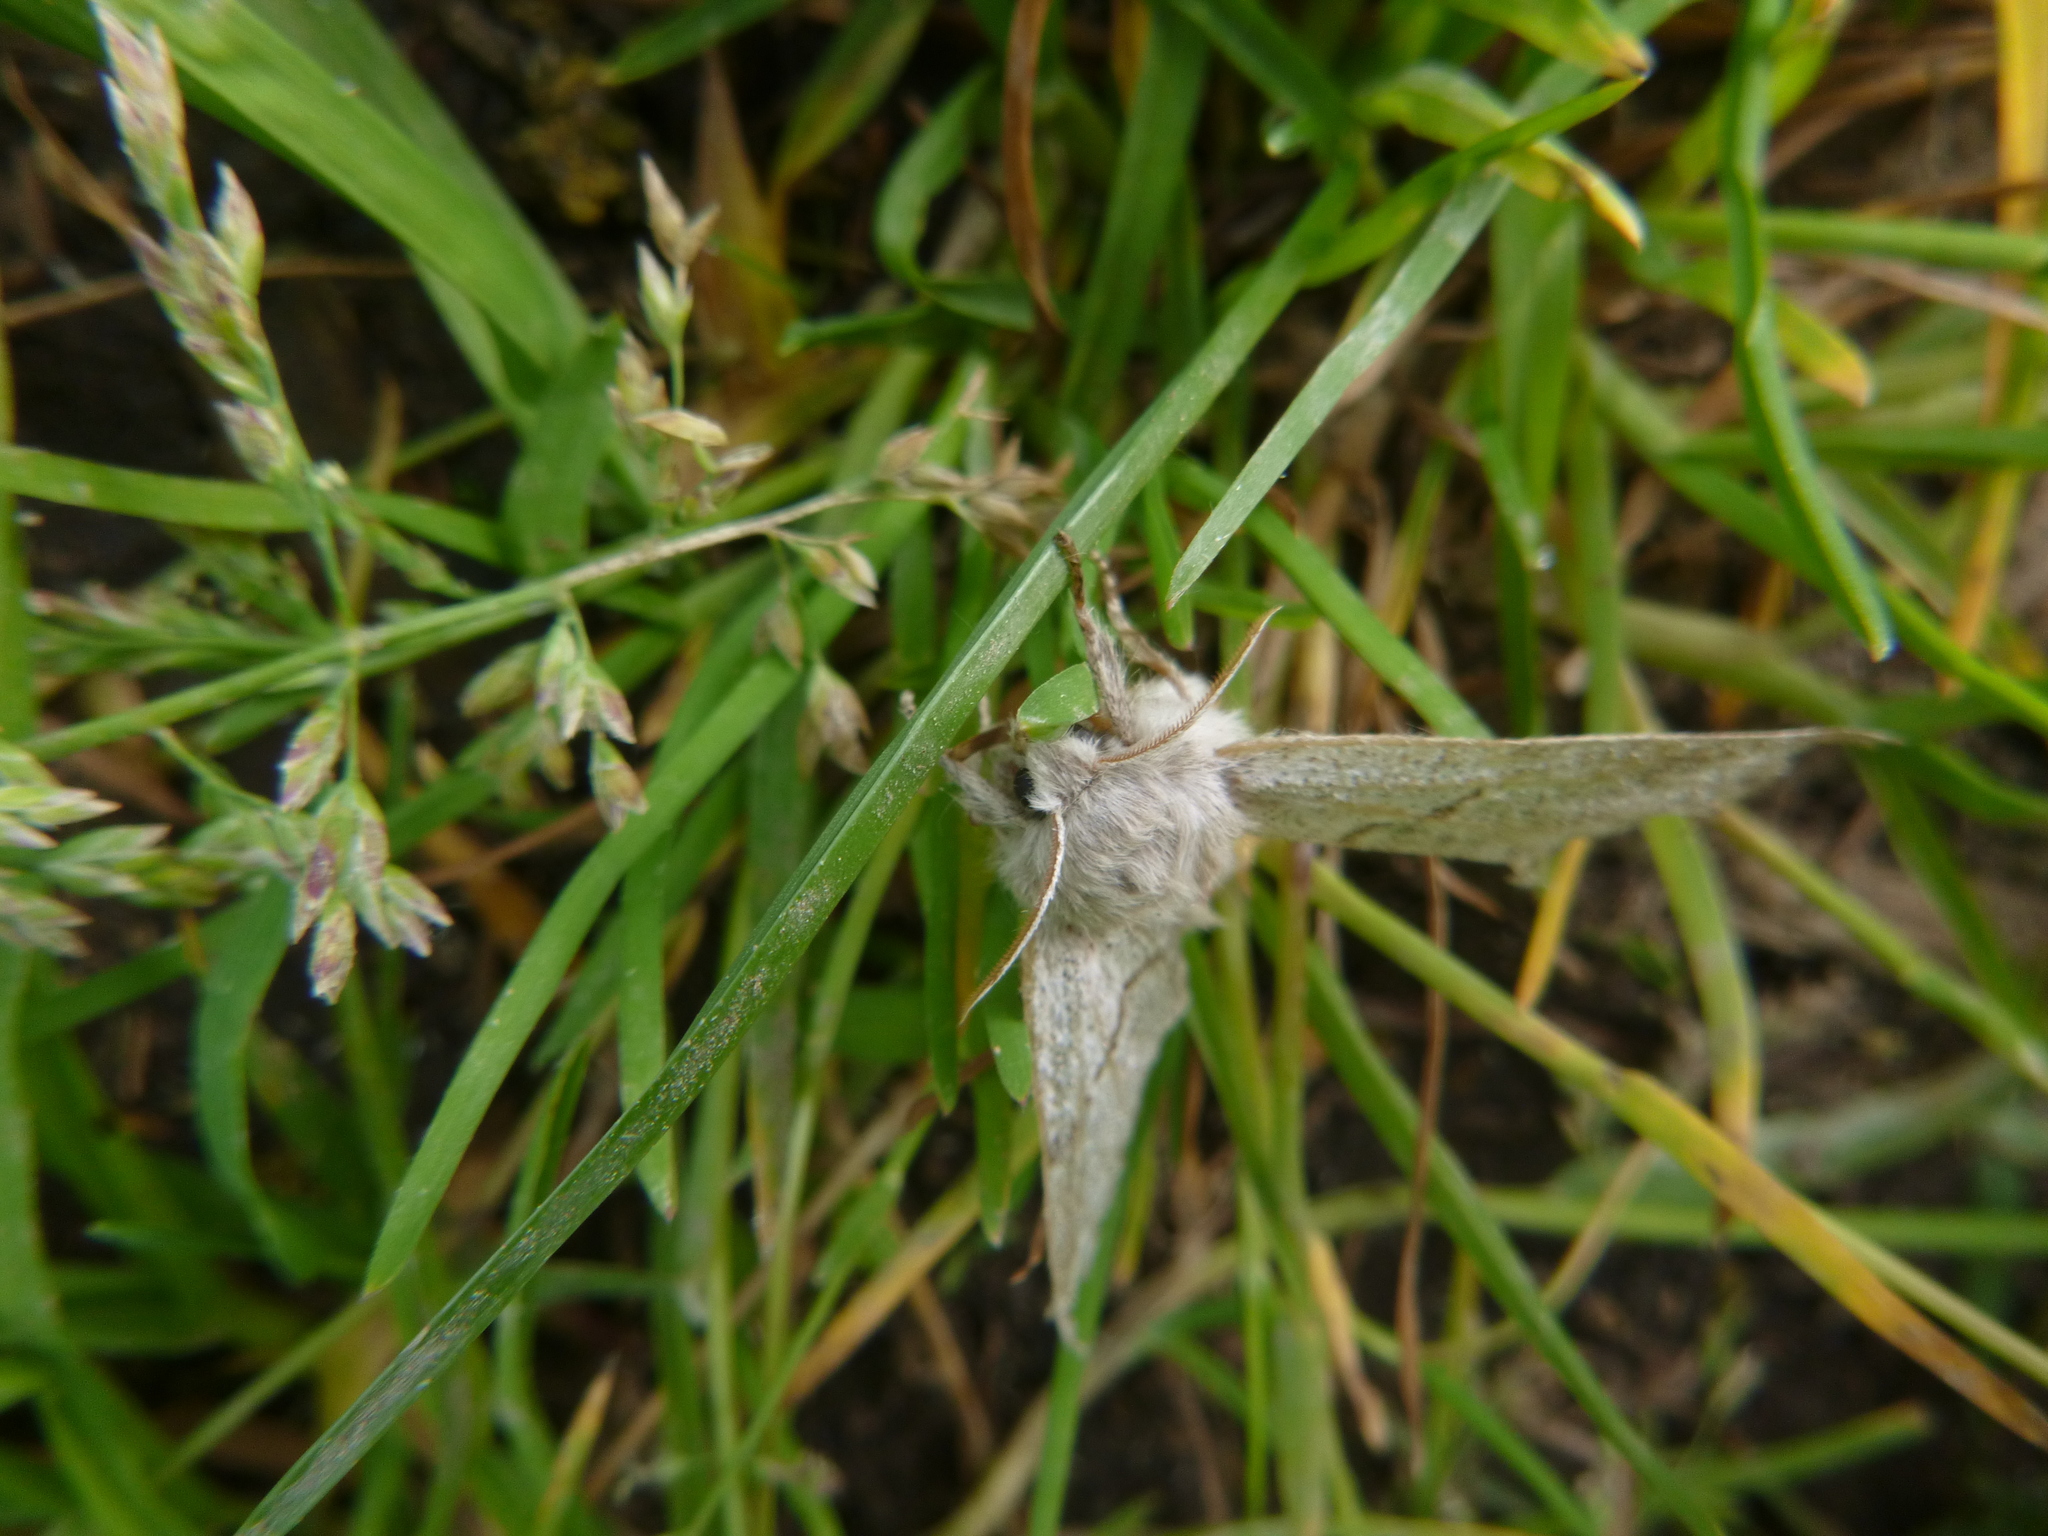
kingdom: Animalia
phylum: Arthropoda
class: Insecta
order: Lepidoptera
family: Erebidae
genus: Calliteara
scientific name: Calliteara pudibunda
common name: Pale tussock
